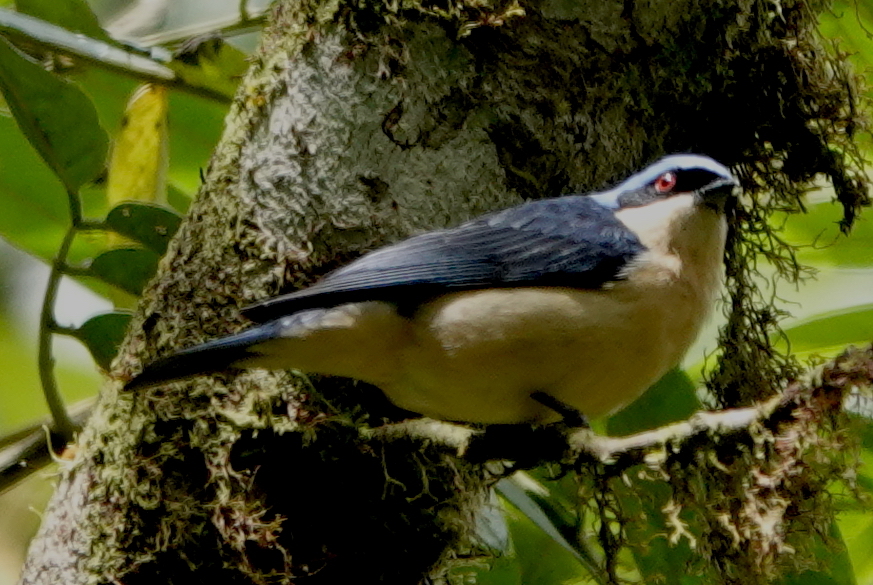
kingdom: Animalia
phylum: Chordata
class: Aves
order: Passeriformes
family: Thraupidae
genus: Pipraeidea
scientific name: Pipraeidea melanonota
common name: Fawn-breasted tanager
